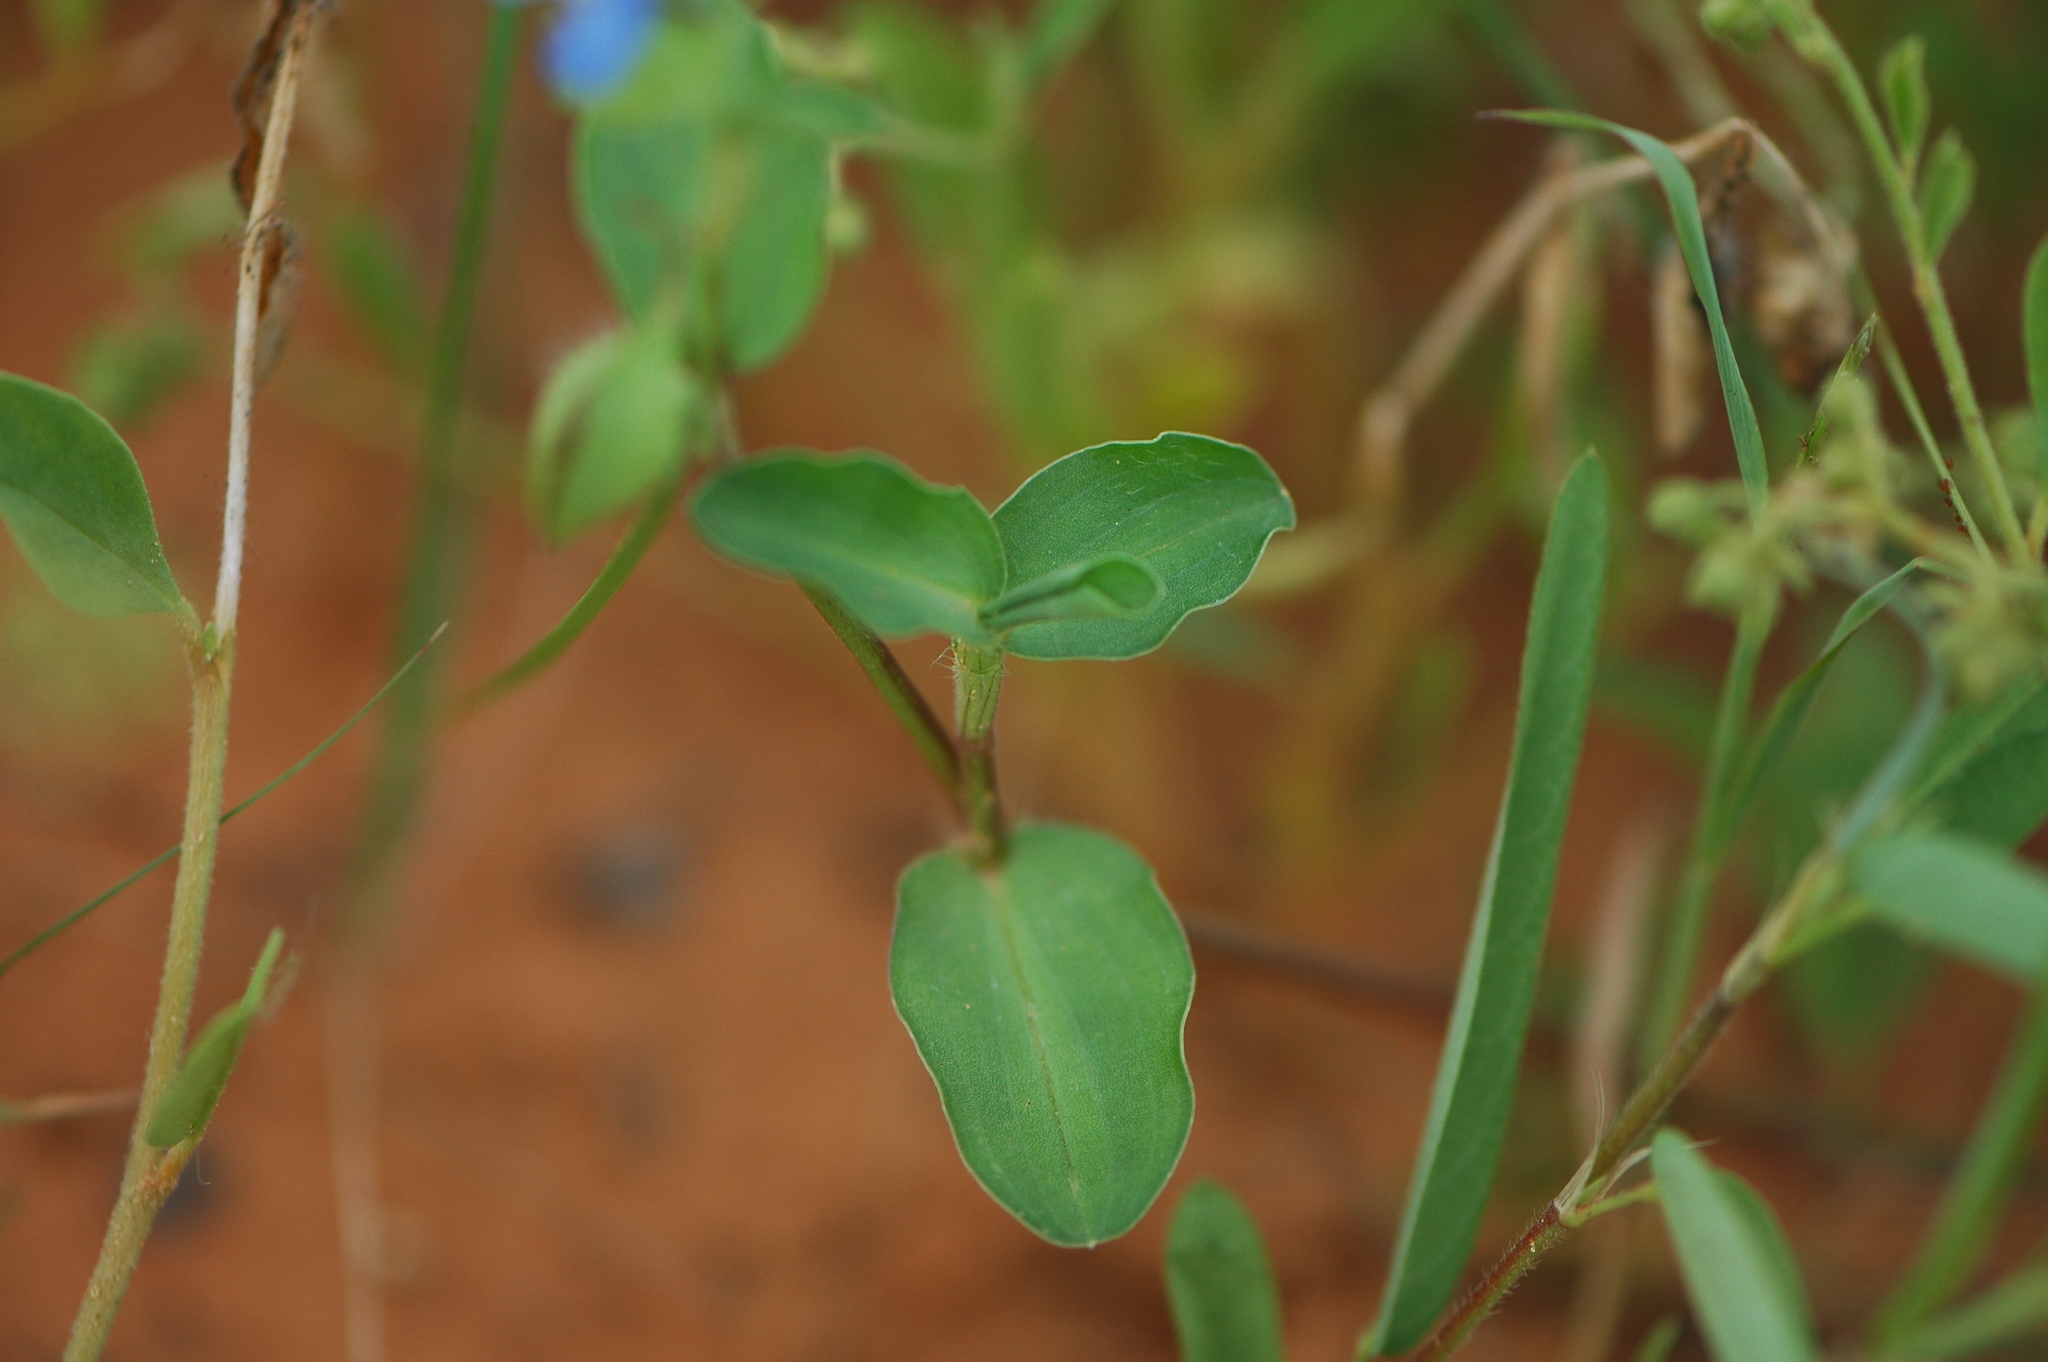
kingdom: Plantae
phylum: Tracheophyta
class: Liliopsida
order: Commelinales
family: Commelinaceae
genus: Commelina
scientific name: Commelina forskaolii
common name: Rat's ear
